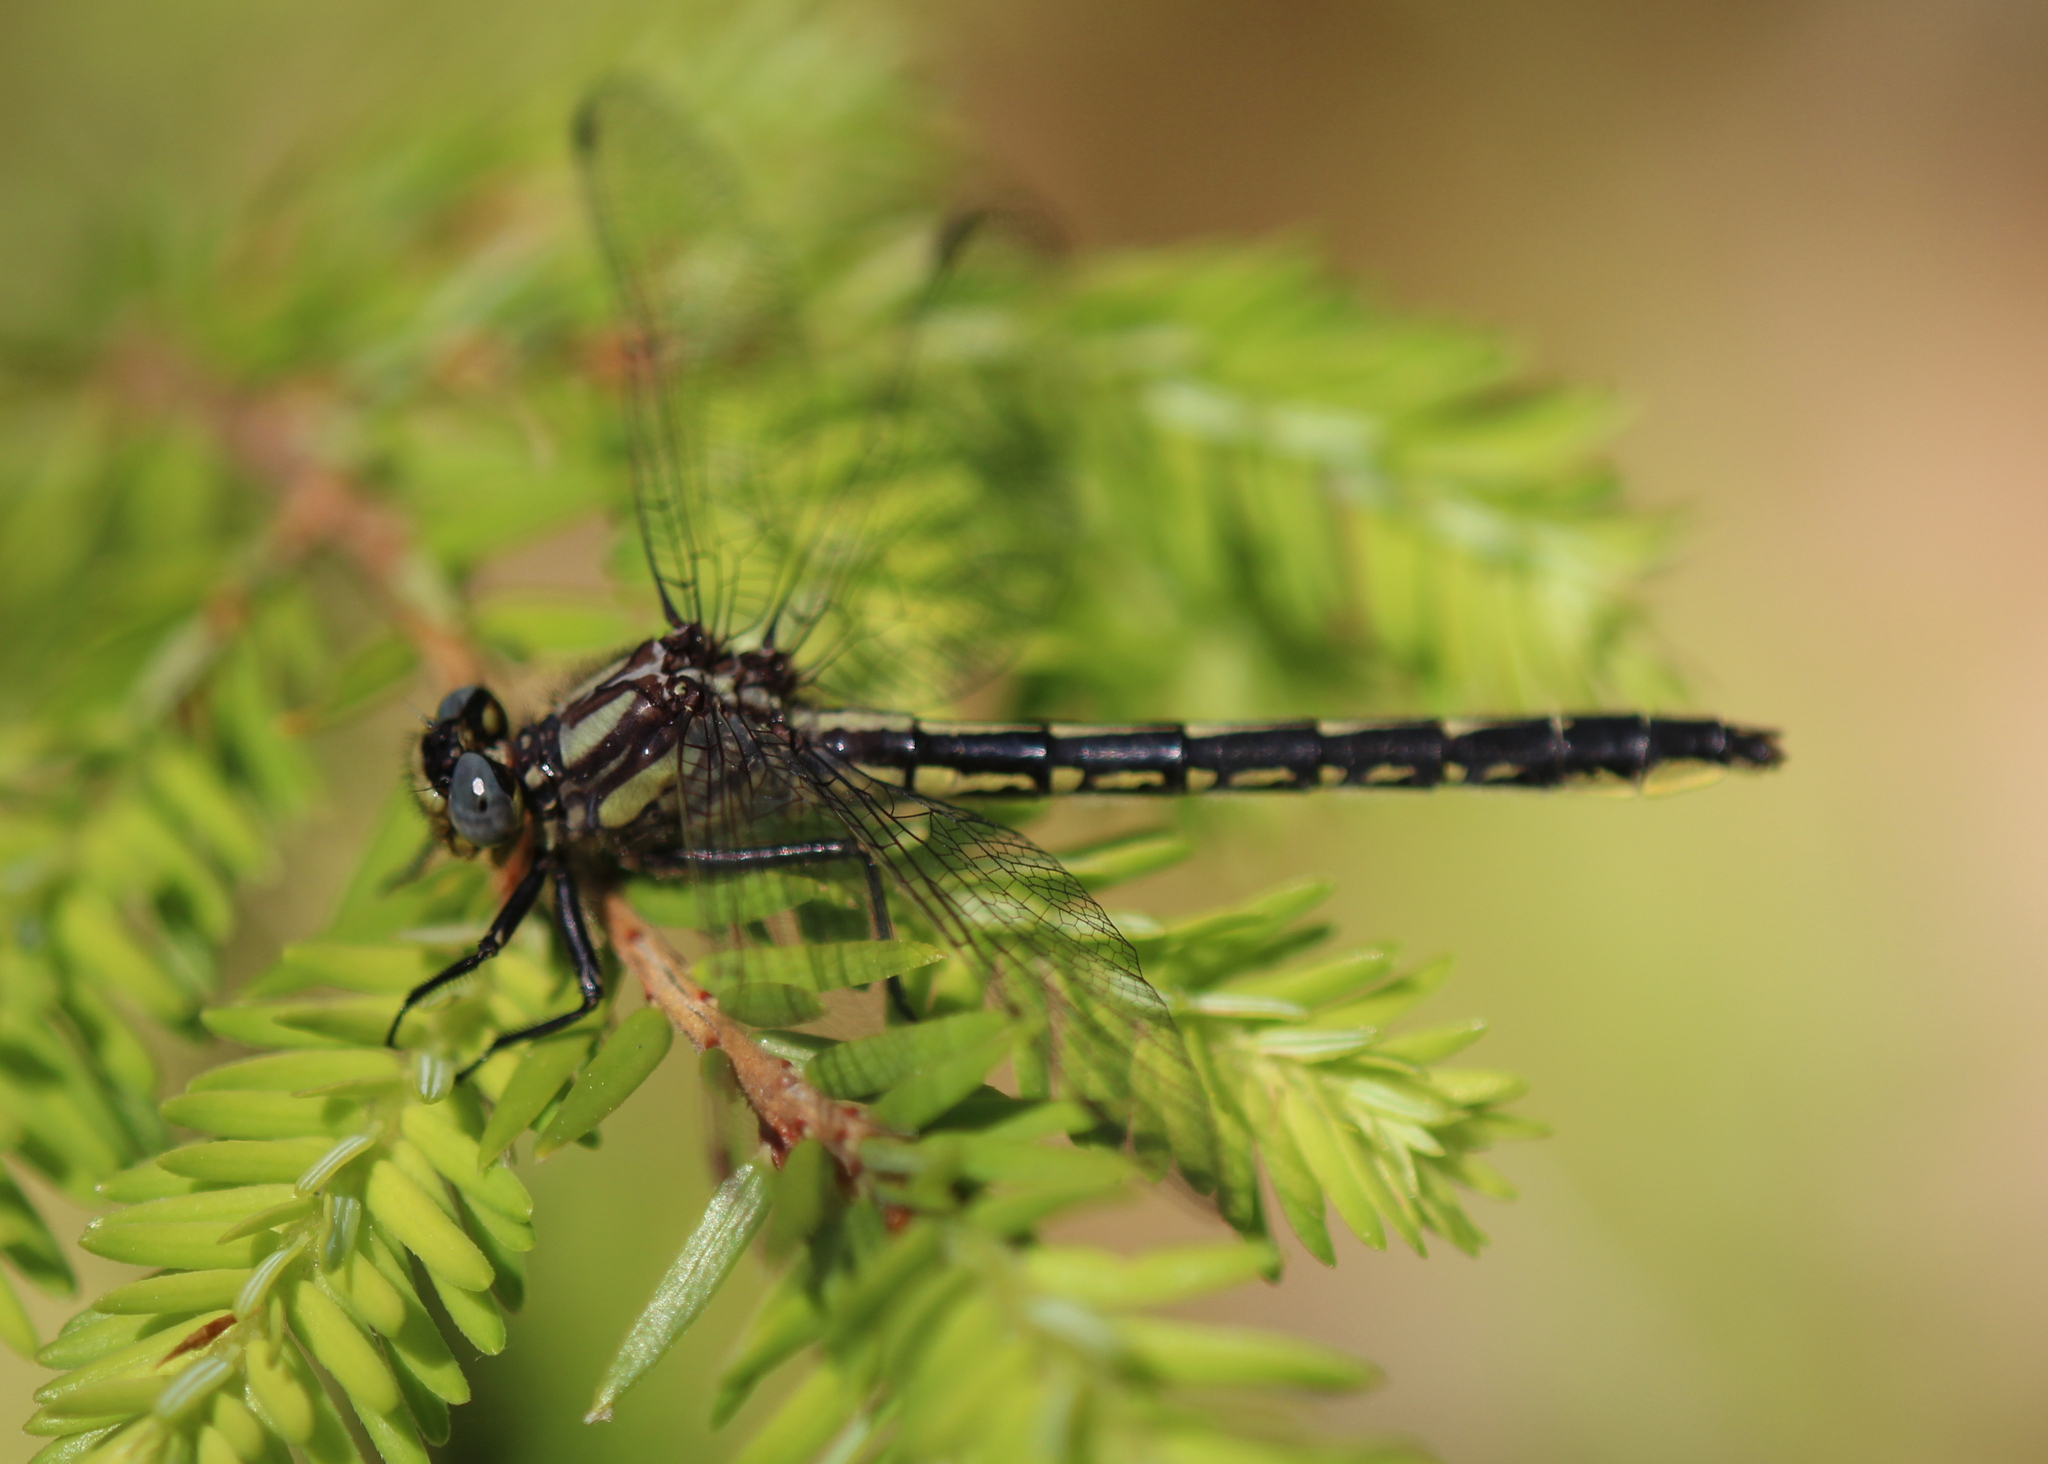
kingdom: Animalia
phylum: Arthropoda
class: Insecta
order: Odonata
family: Gomphidae
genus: Phanogomphus
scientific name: Phanogomphus borealis
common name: Beaverpond clubtail
